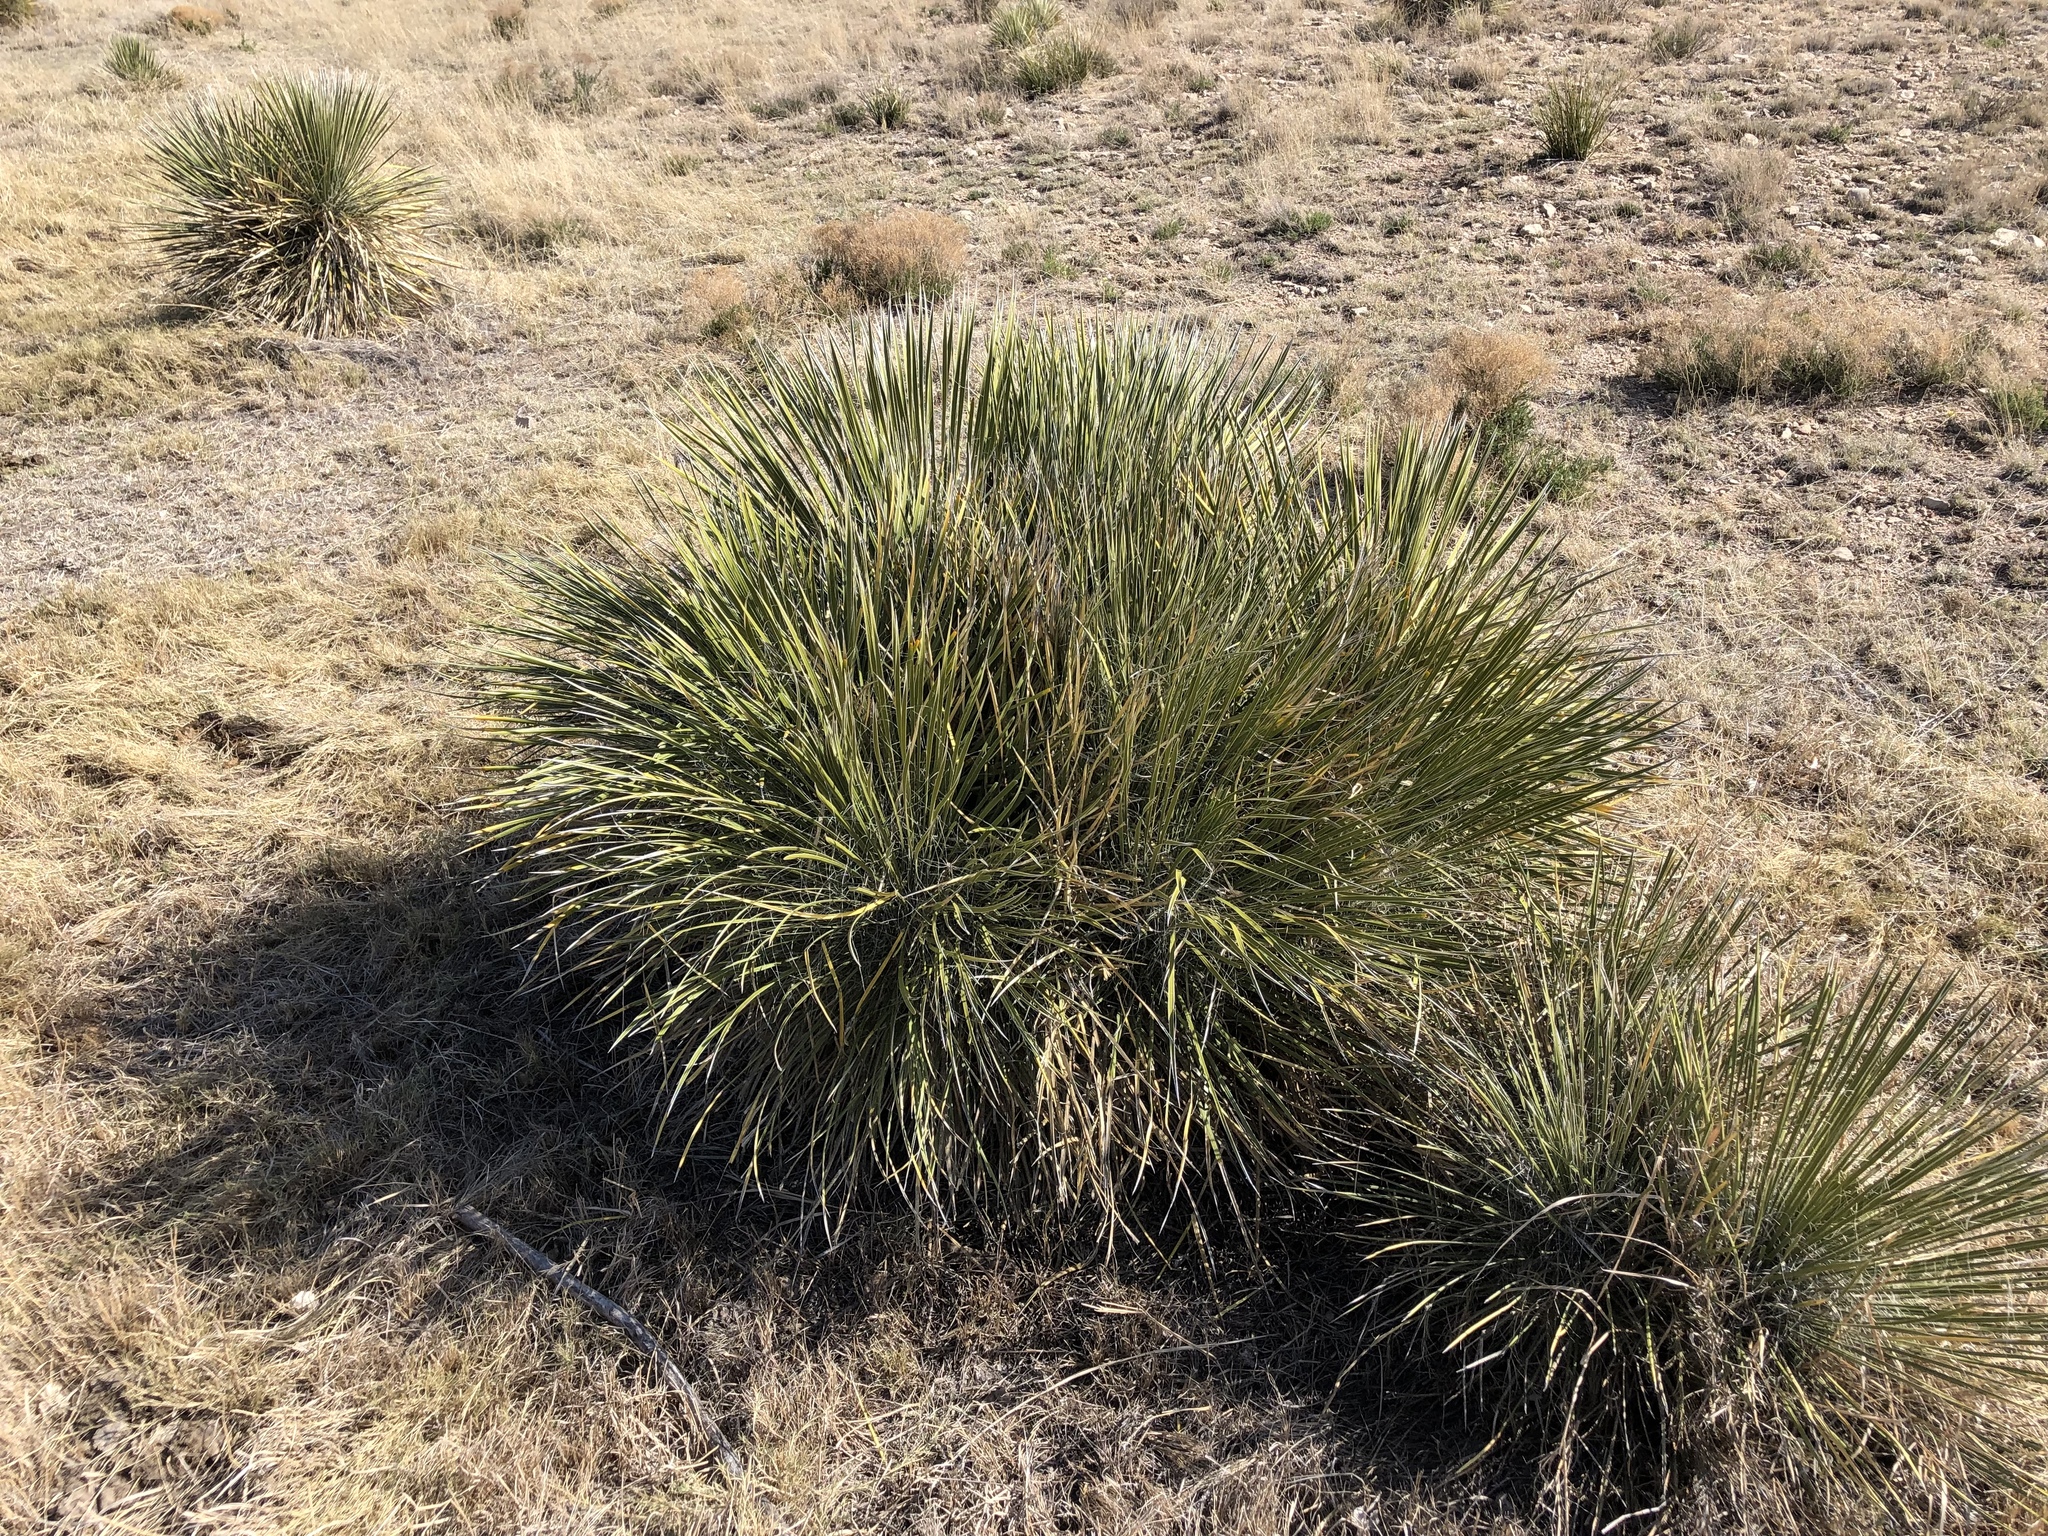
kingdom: Plantae
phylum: Tracheophyta
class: Liliopsida
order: Asparagales
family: Asparagaceae
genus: Yucca
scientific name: Yucca elata
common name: Palmella
